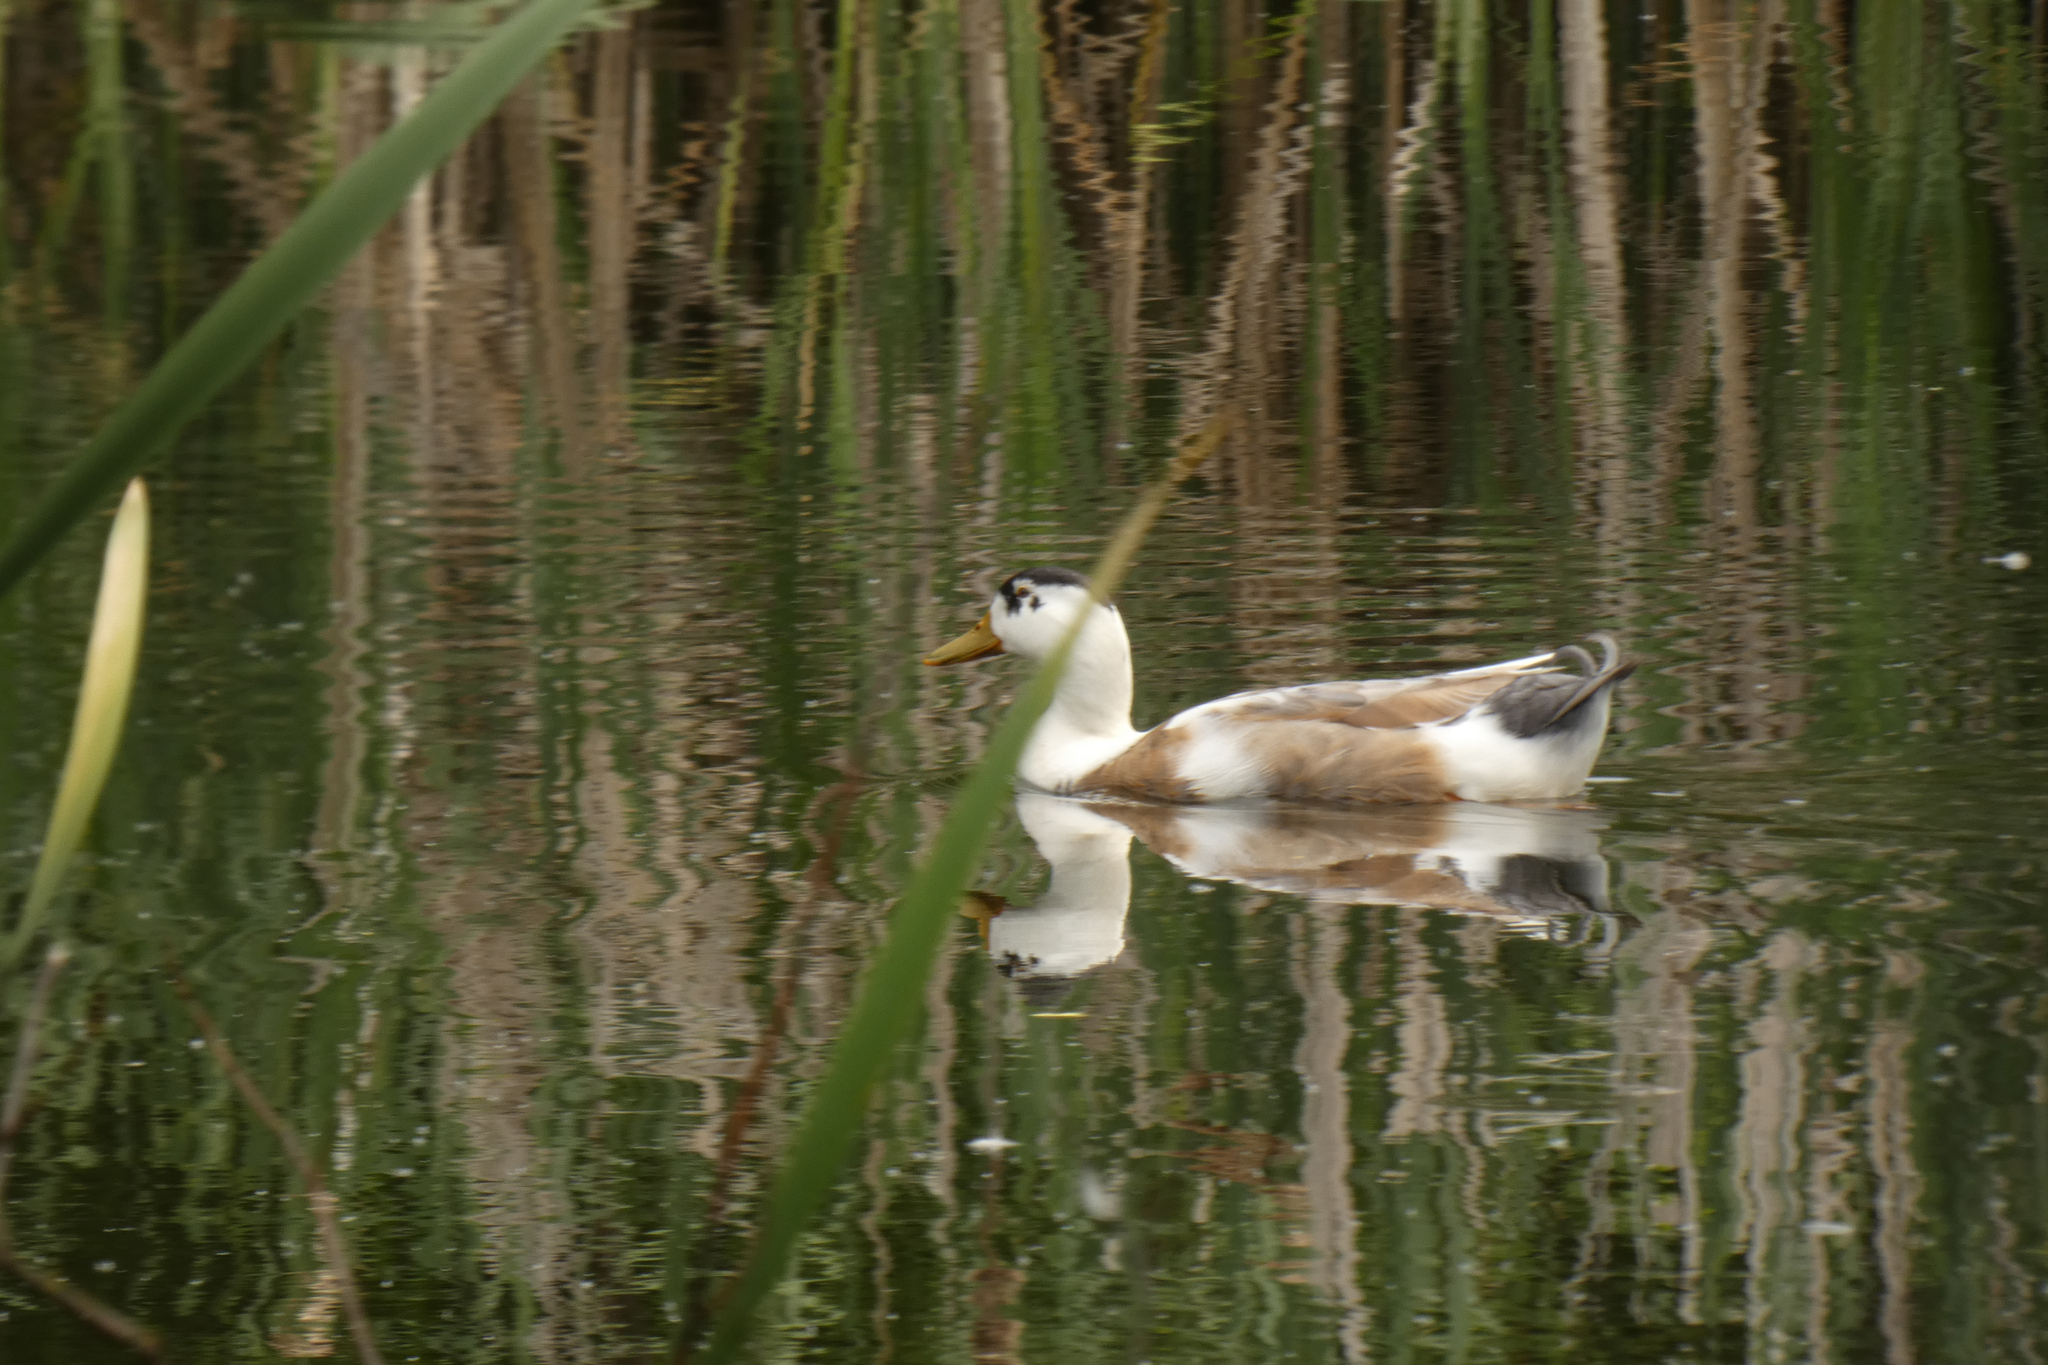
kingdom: Animalia
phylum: Chordata
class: Aves
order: Anseriformes
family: Anatidae
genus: Anas
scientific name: Anas platyrhynchos
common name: Mallard
